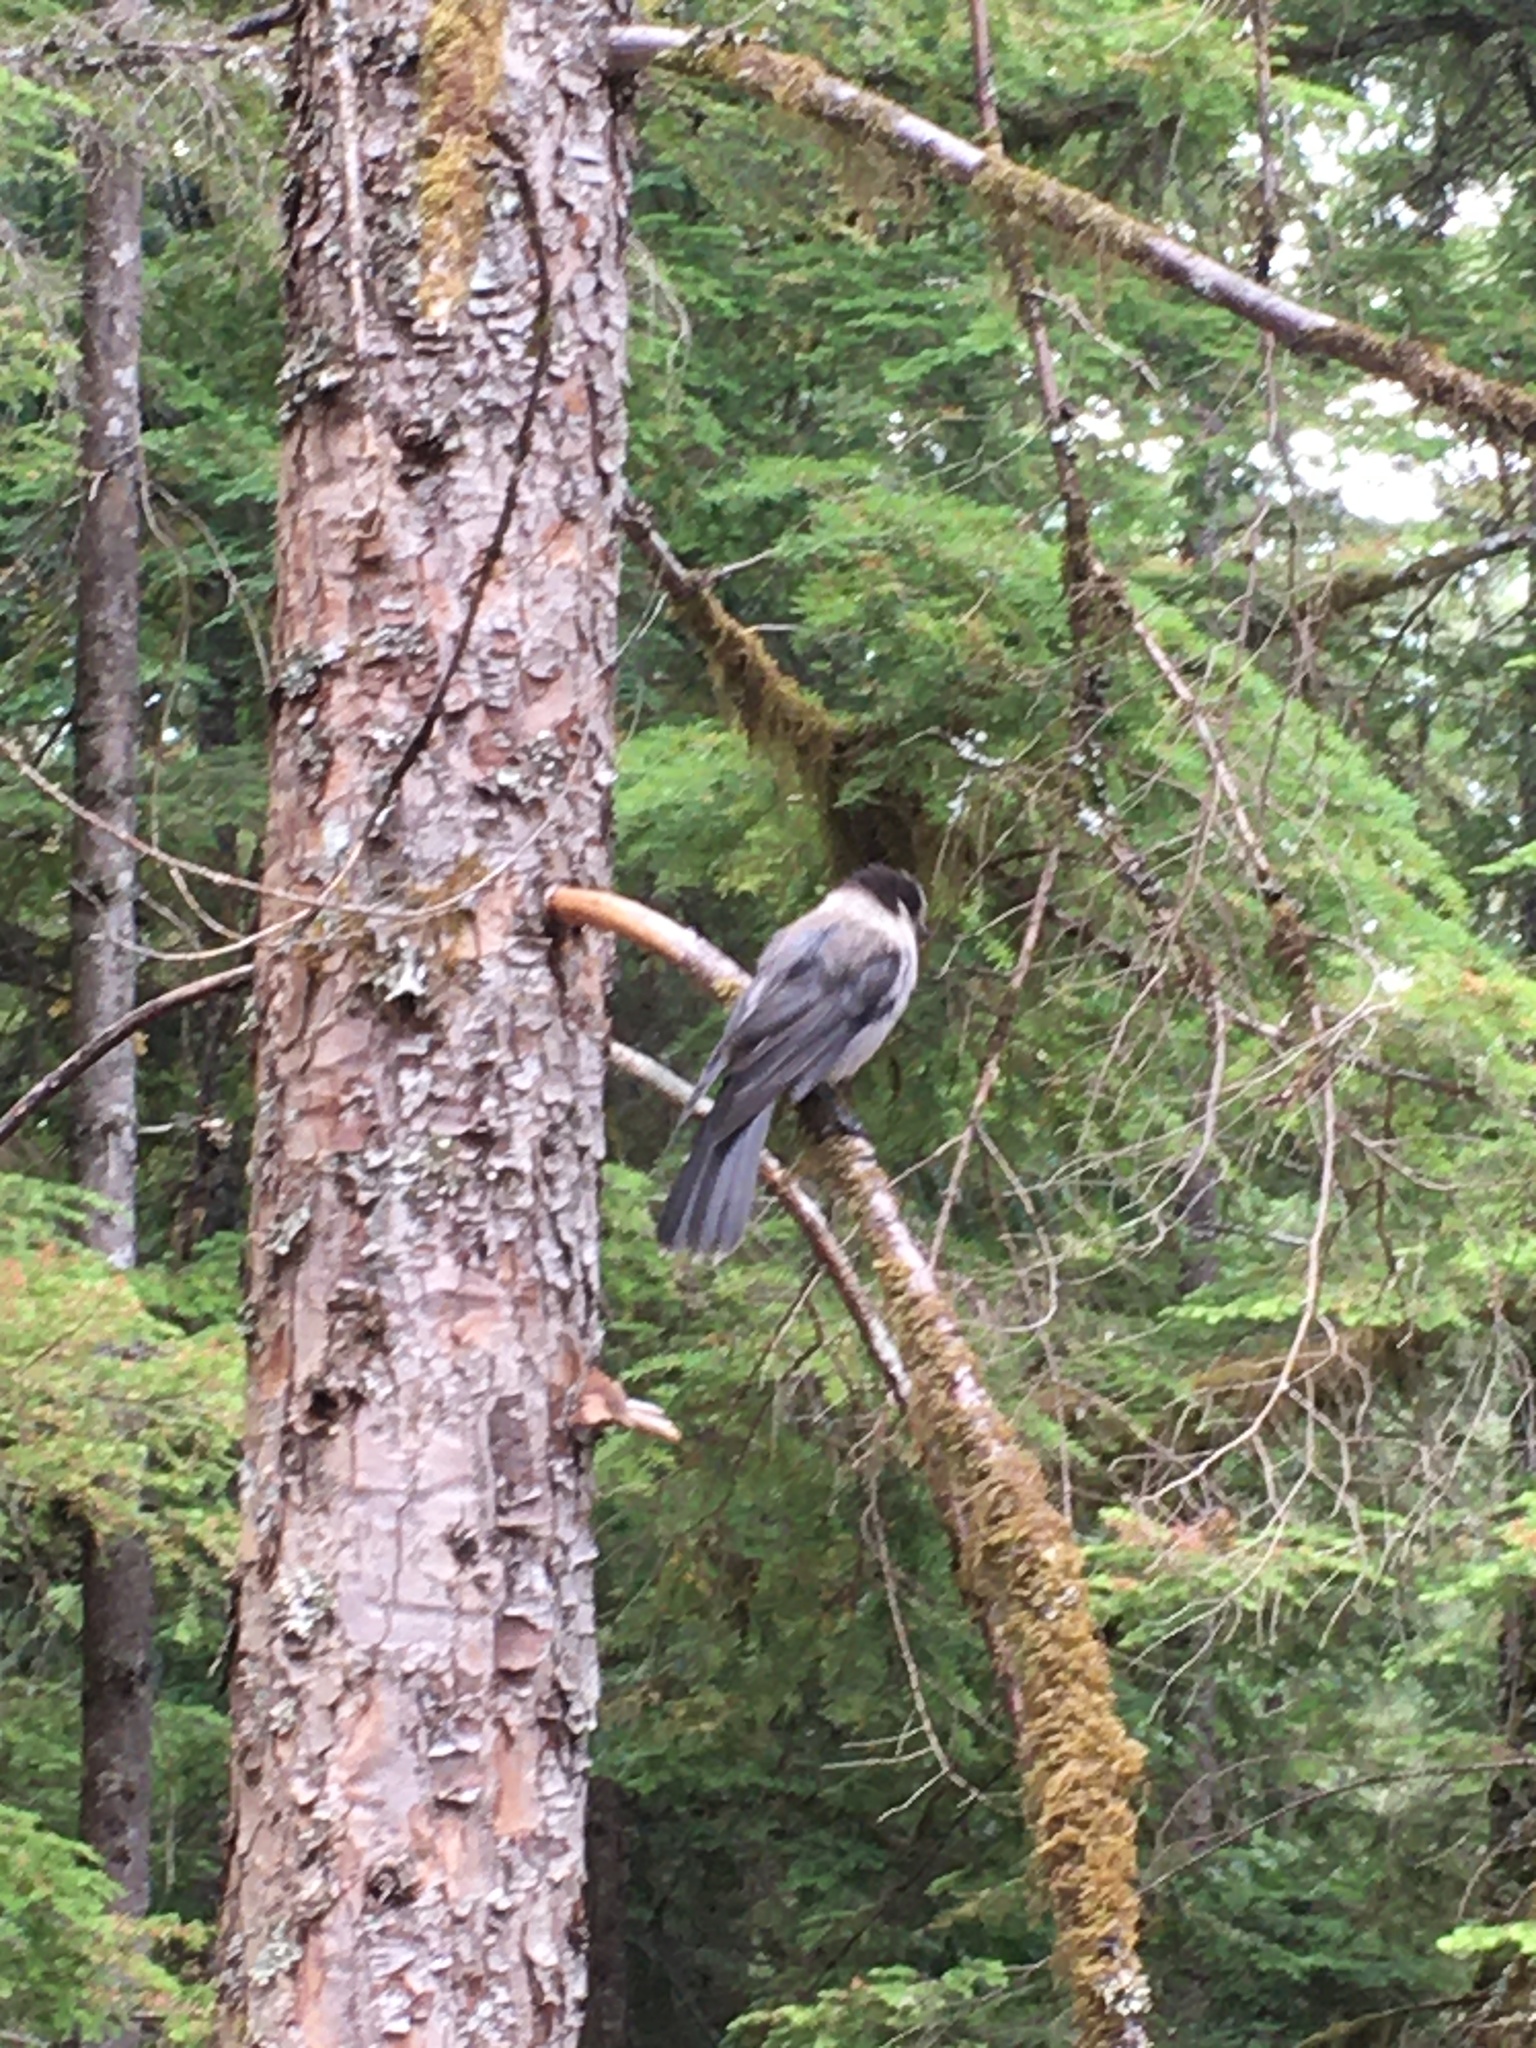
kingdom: Animalia
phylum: Chordata
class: Aves
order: Passeriformes
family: Corvidae
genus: Perisoreus
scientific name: Perisoreus canadensis
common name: Gray jay
